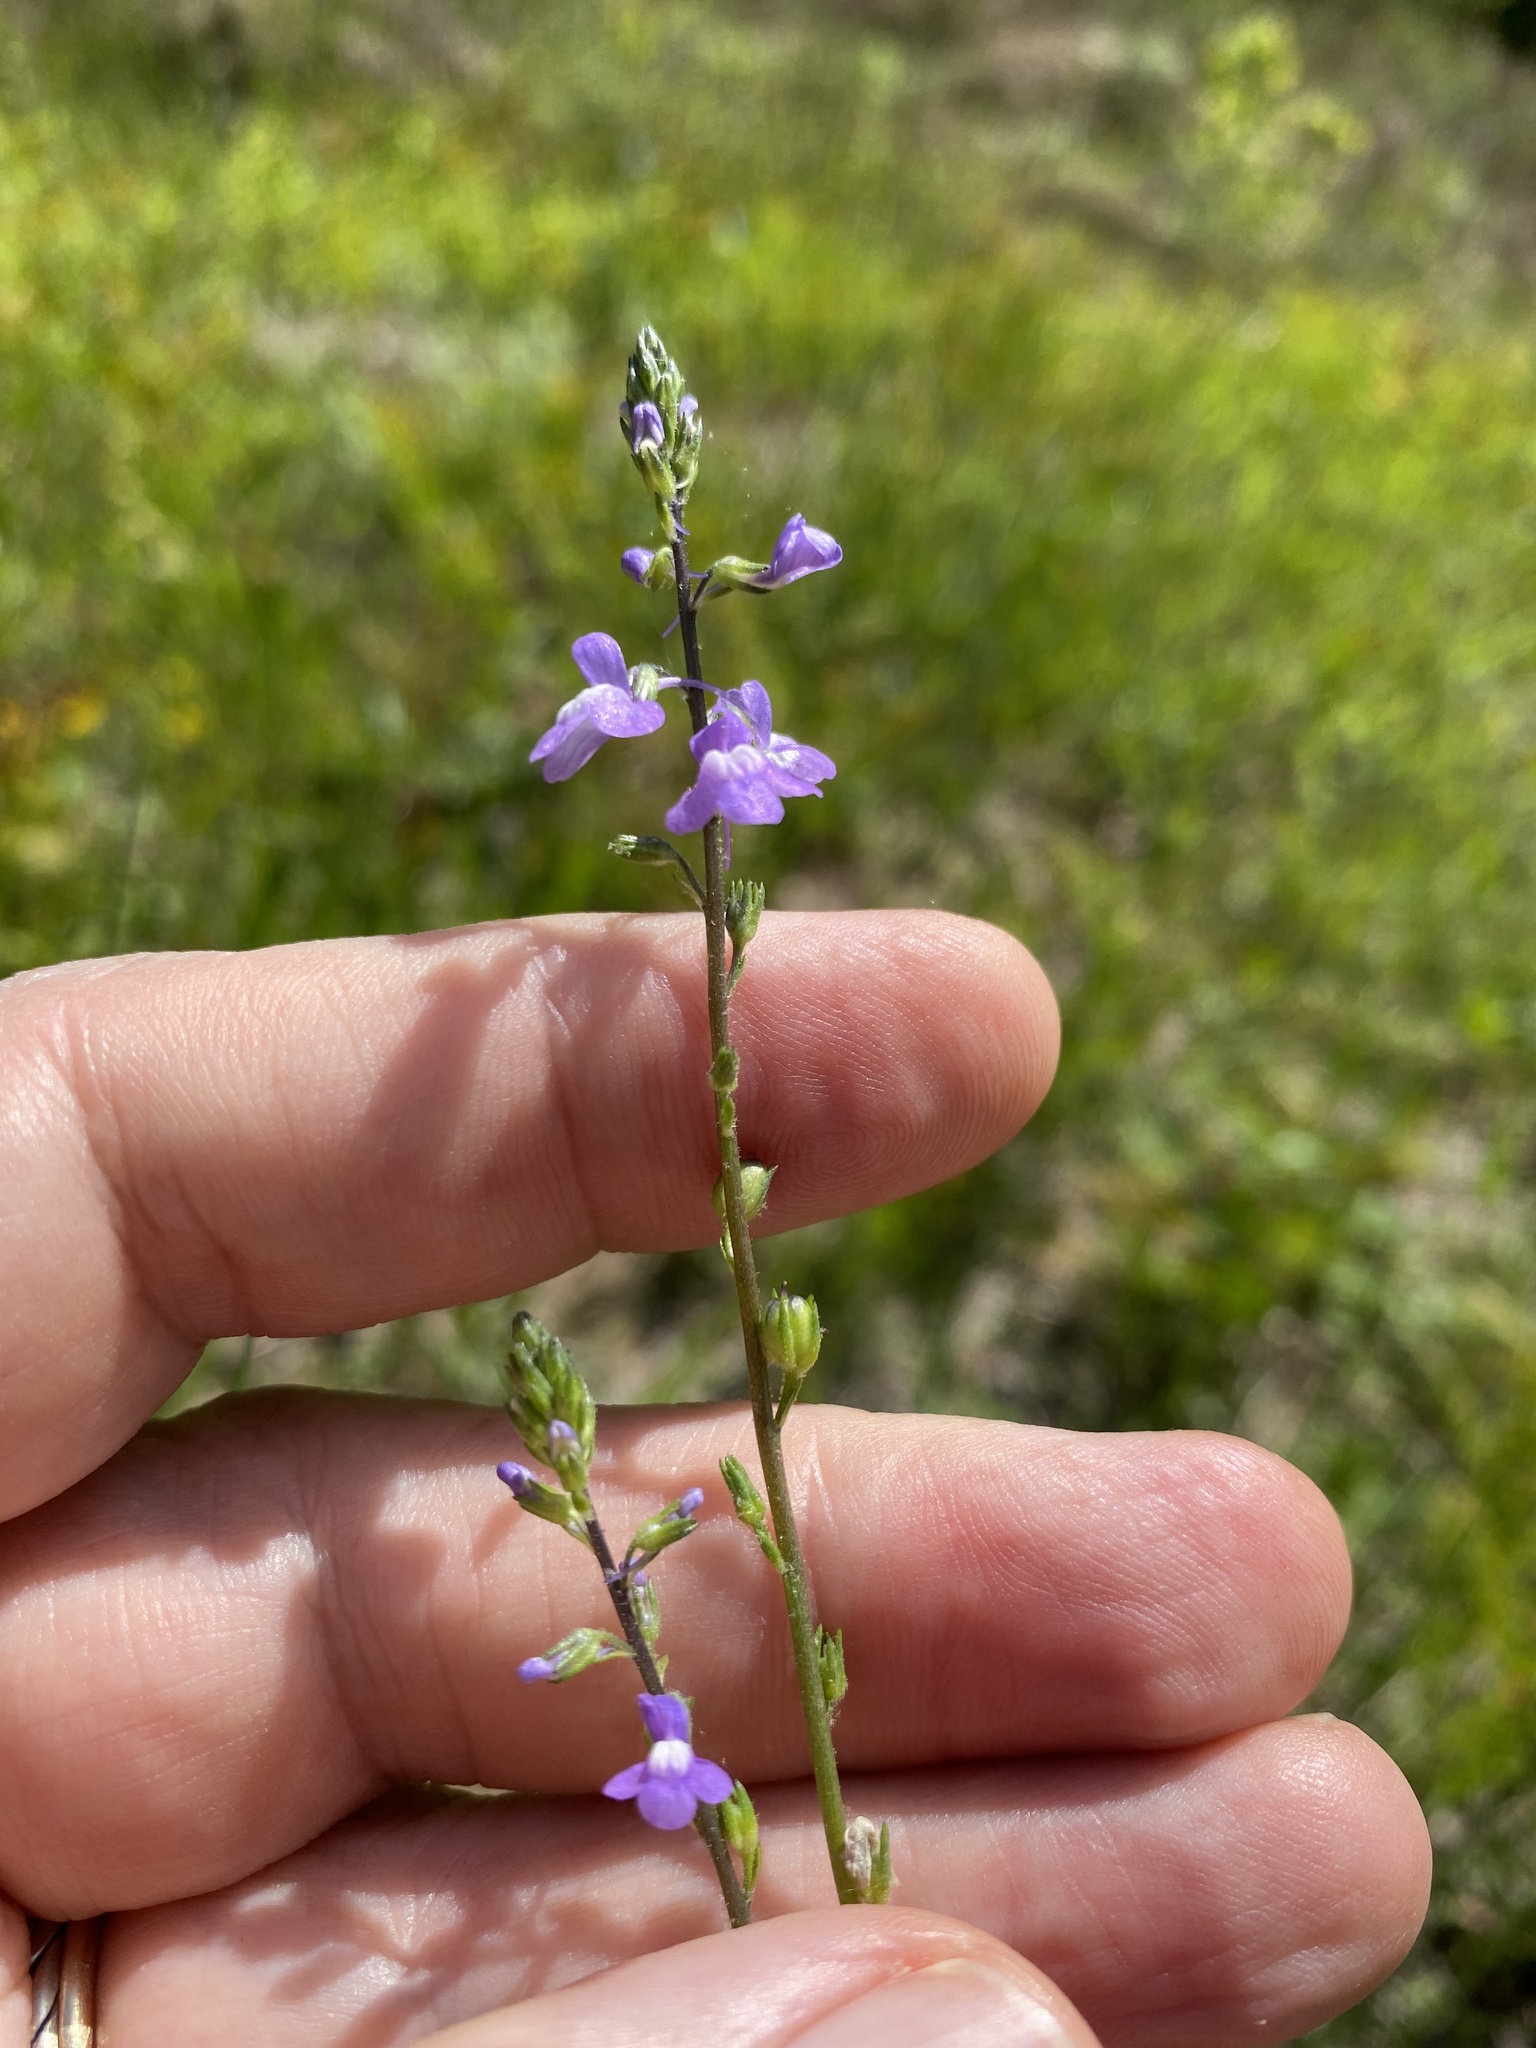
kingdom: Plantae
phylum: Tracheophyta
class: Magnoliopsida
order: Lamiales
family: Plantaginaceae
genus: Nuttallanthus
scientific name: Nuttallanthus canadensis
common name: Blue toadflax
